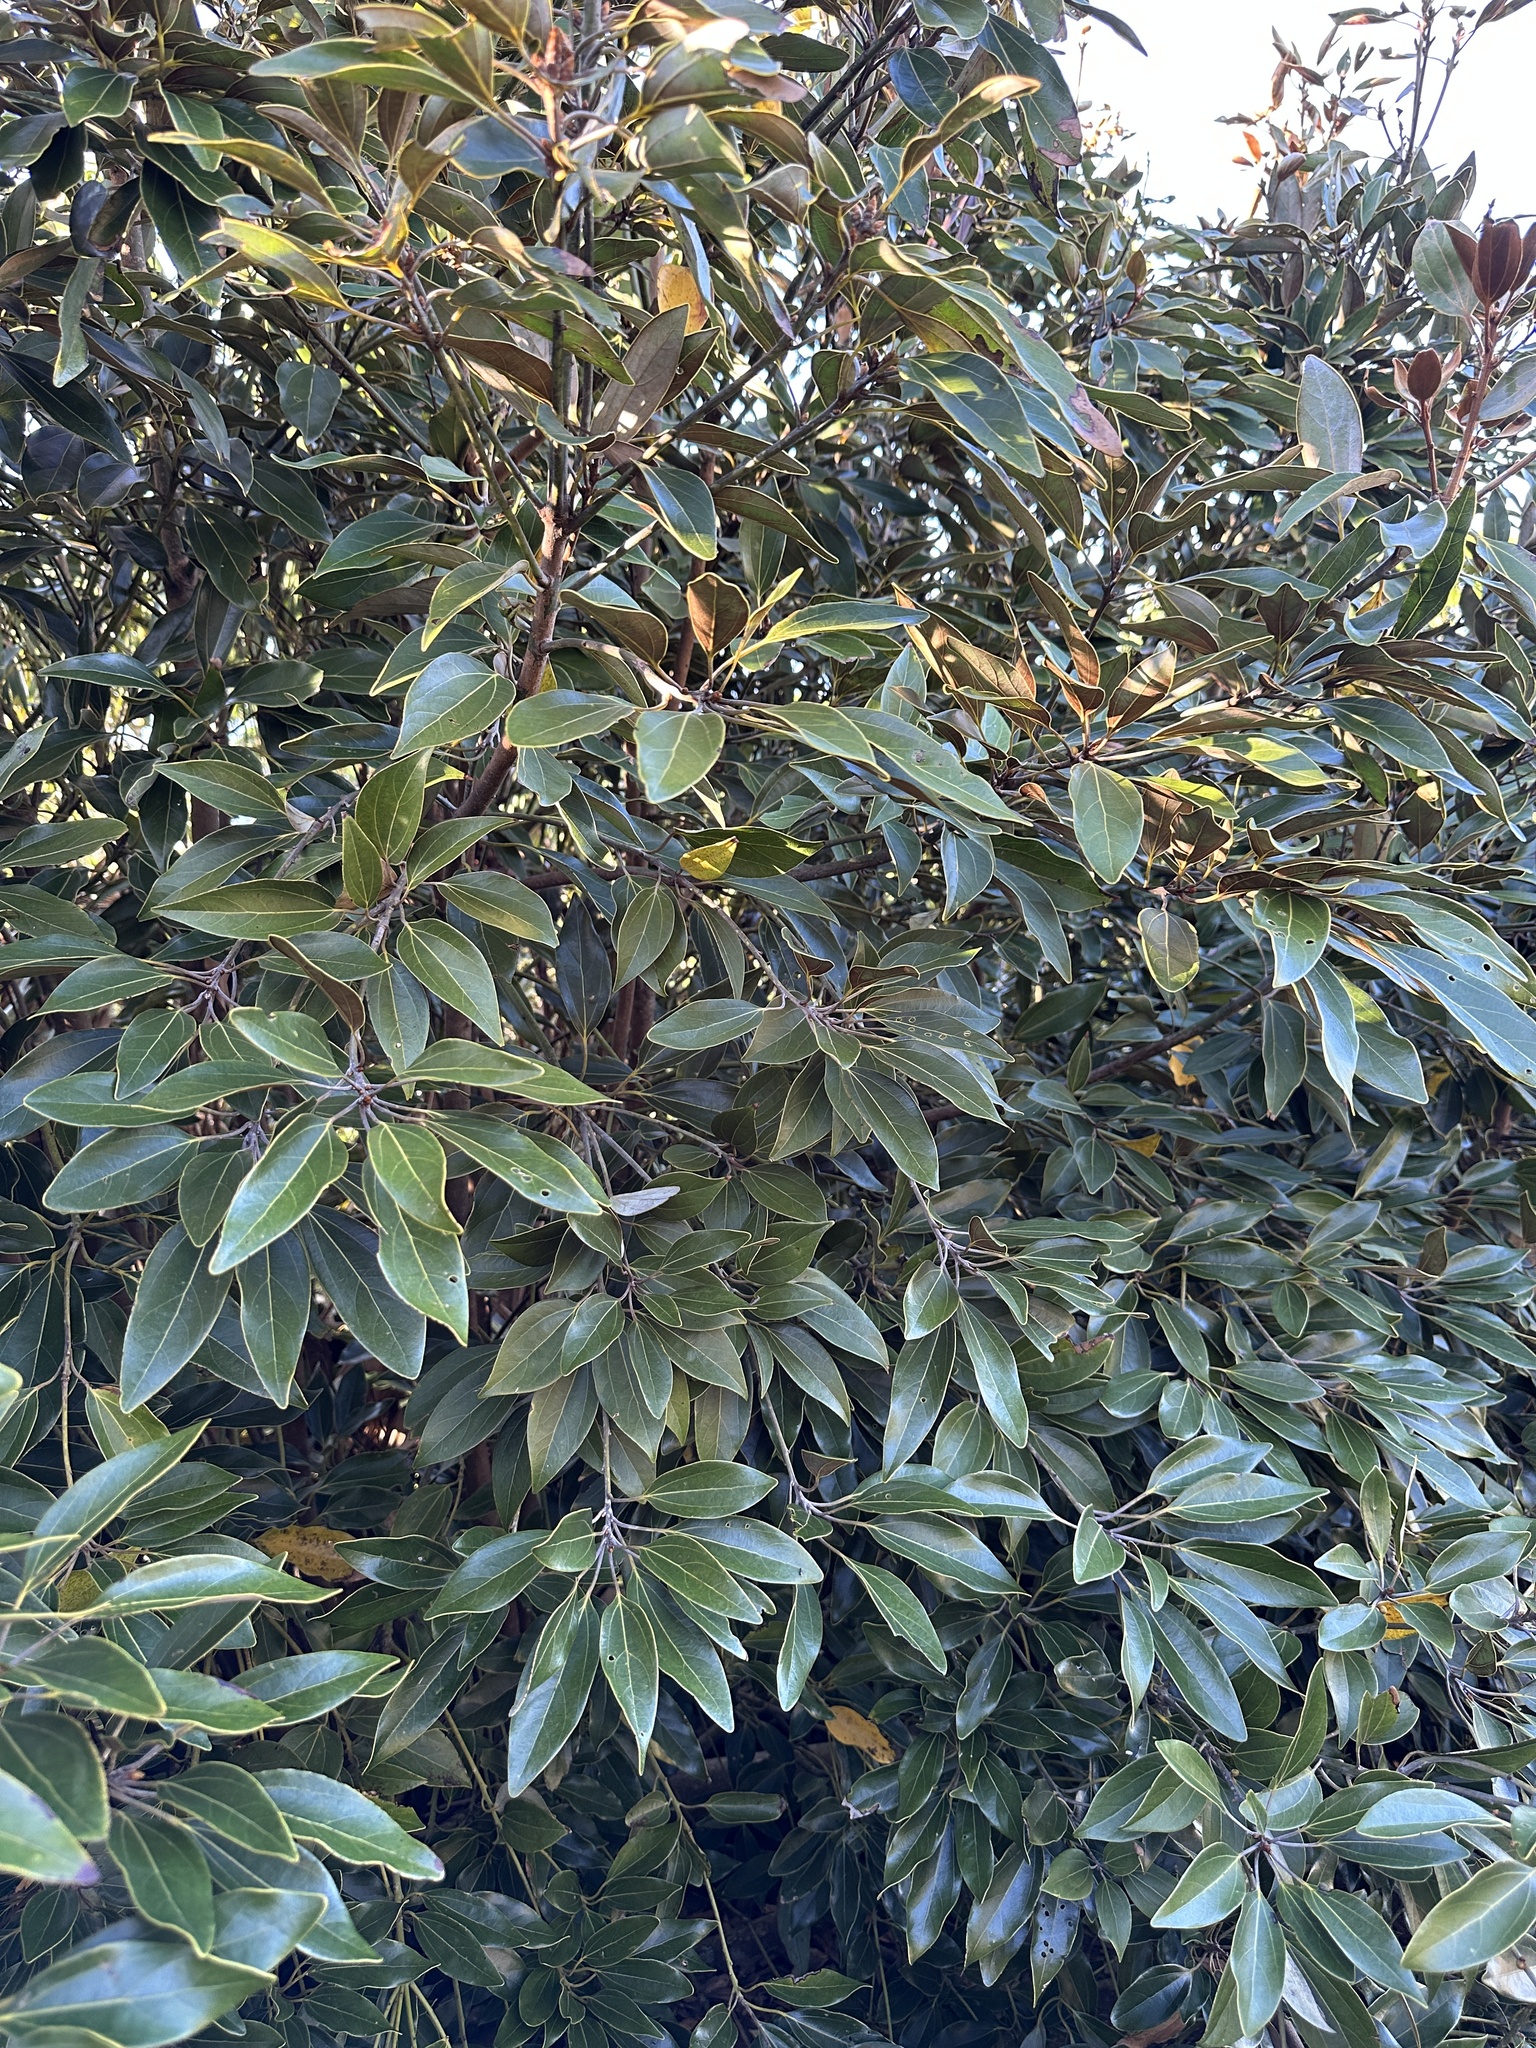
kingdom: Plantae
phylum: Tracheophyta
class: Magnoliopsida
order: Laurales
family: Lauraceae
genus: Neolitsea
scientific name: Neolitsea aurata
